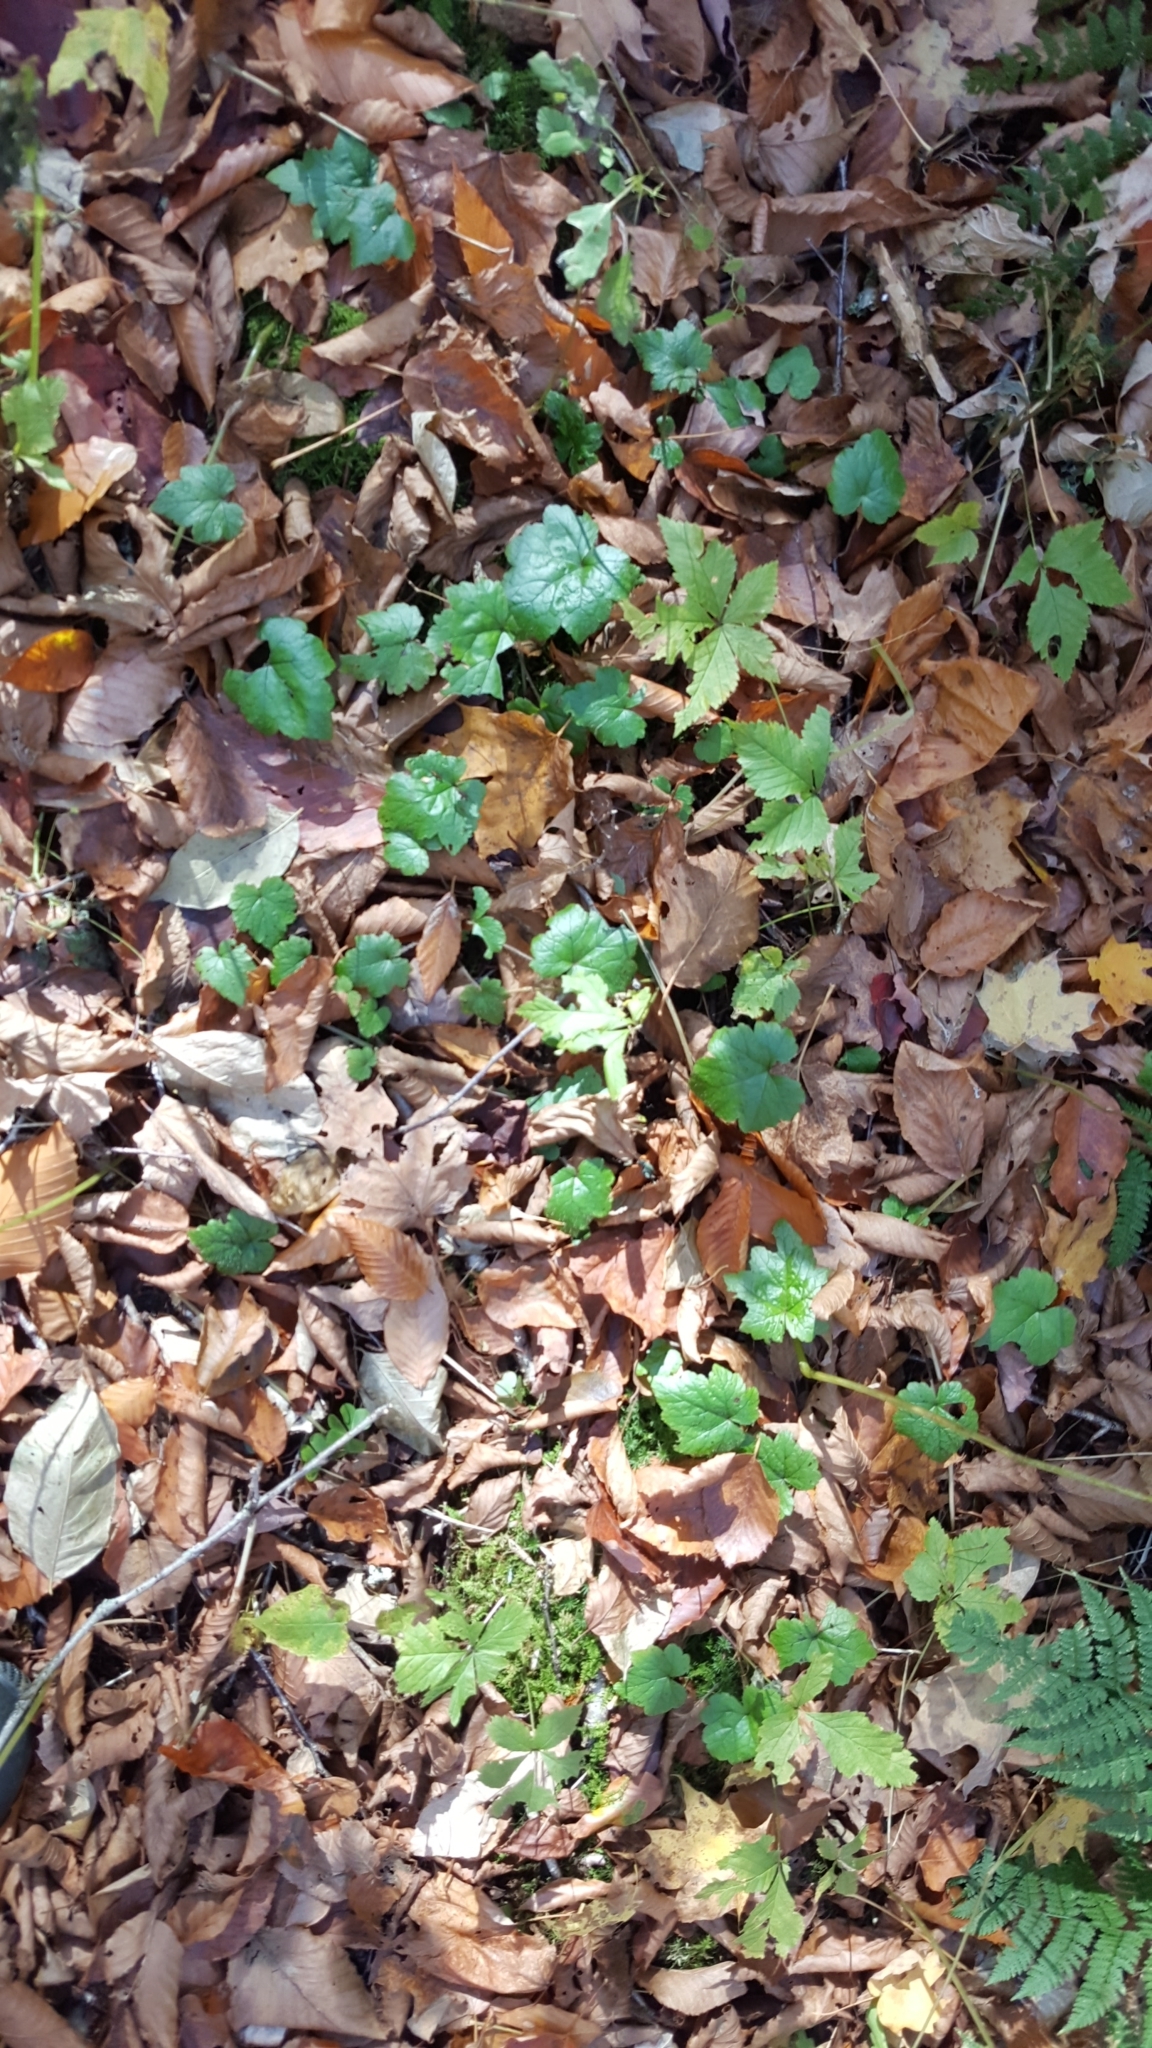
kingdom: Plantae
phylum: Tracheophyta
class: Magnoliopsida
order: Saxifragales
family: Saxifragaceae
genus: Tiarella
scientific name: Tiarella stolonifera
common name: Stoloniferous foamflower
